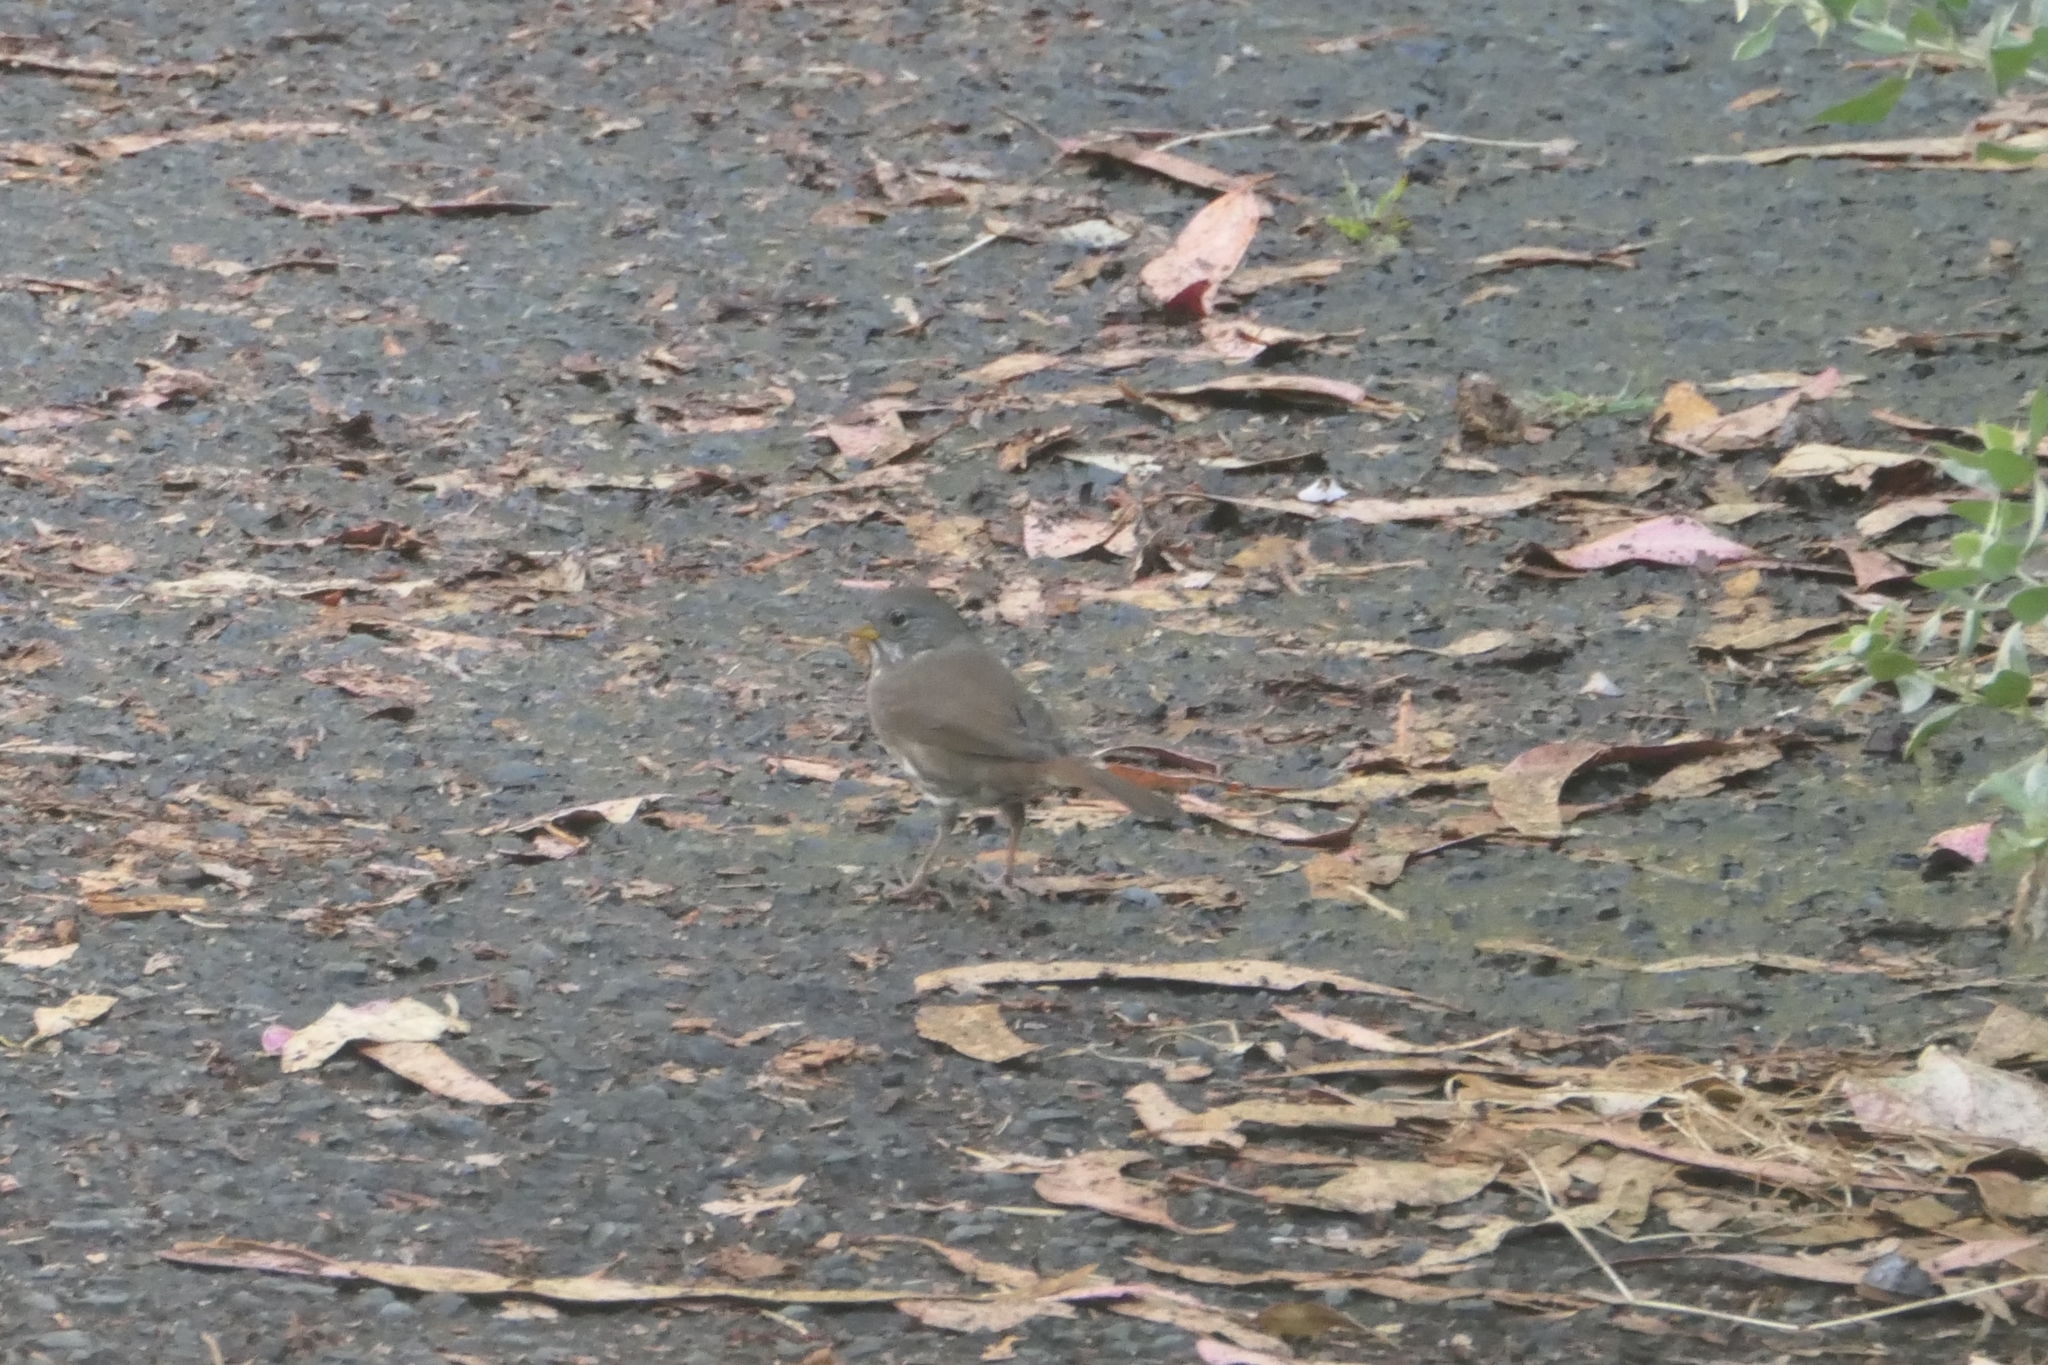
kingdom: Animalia
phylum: Chordata
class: Aves
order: Passeriformes
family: Passerellidae
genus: Passerella
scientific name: Passerella iliaca
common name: Fox sparrow
